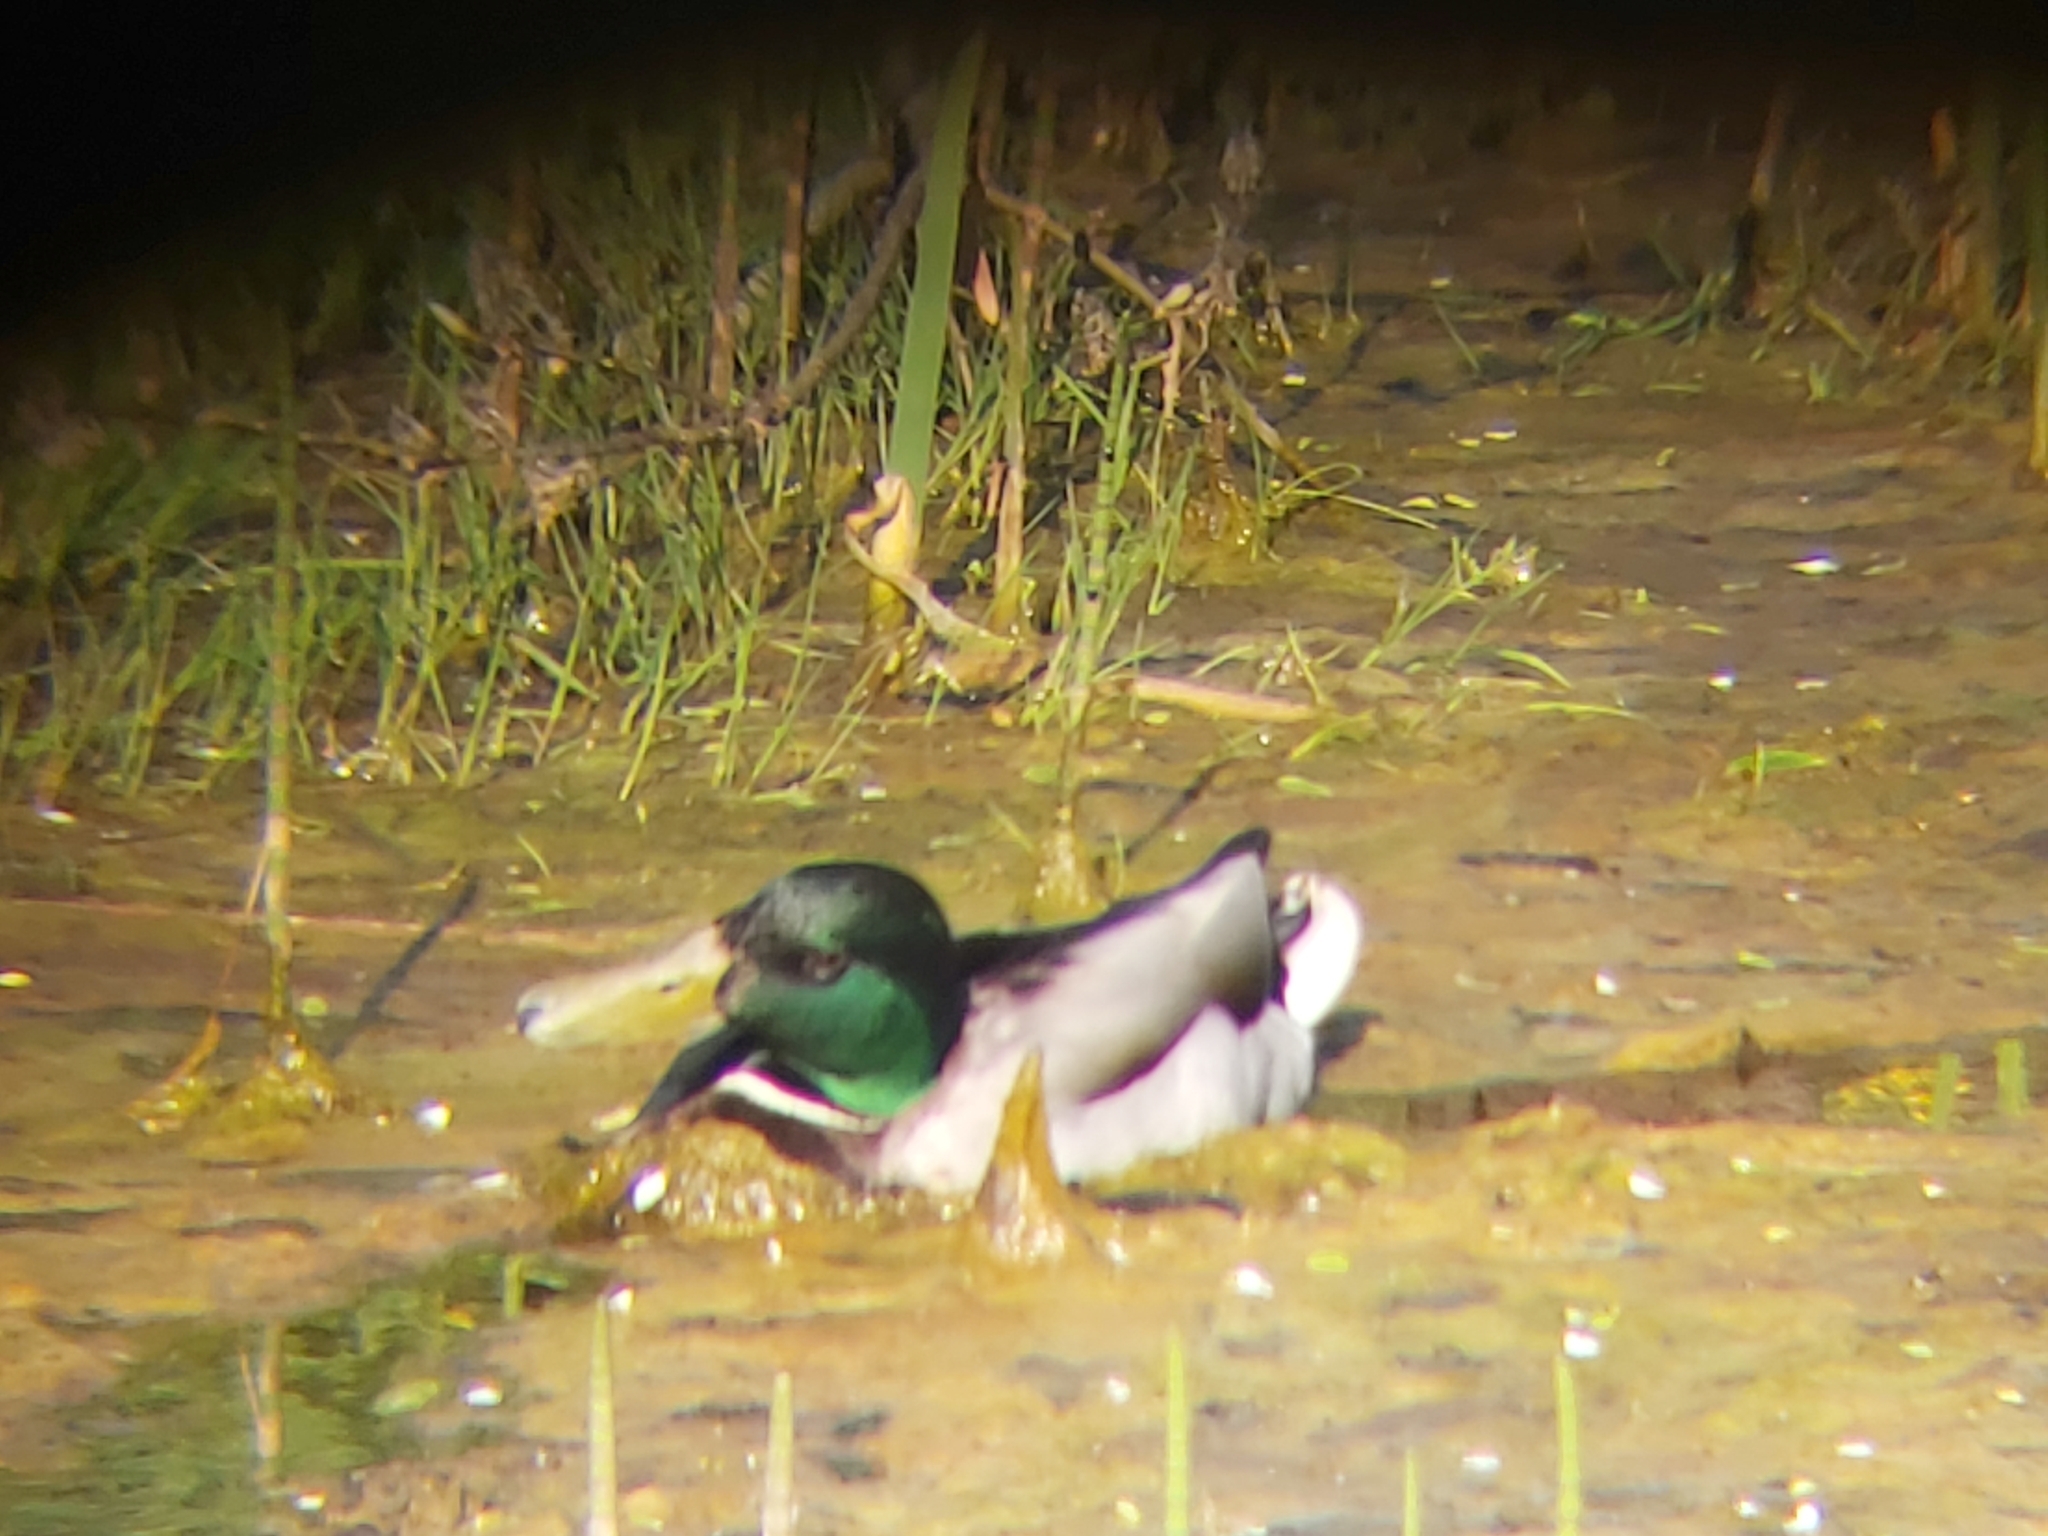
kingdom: Animalia
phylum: Chordata
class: Aves
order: Anseriformes
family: Anatidae
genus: Anas
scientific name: Anas platyrhynchos
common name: Mallard
